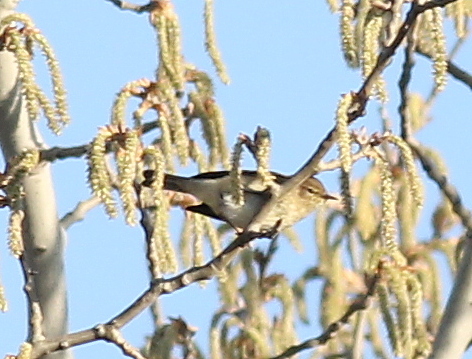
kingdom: Animalia
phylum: Chordata
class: Aves
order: Passeriformes
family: Phylloscopidae
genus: Phylloscopus
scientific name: Phylloscopus collybita
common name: Common chiffchaff
